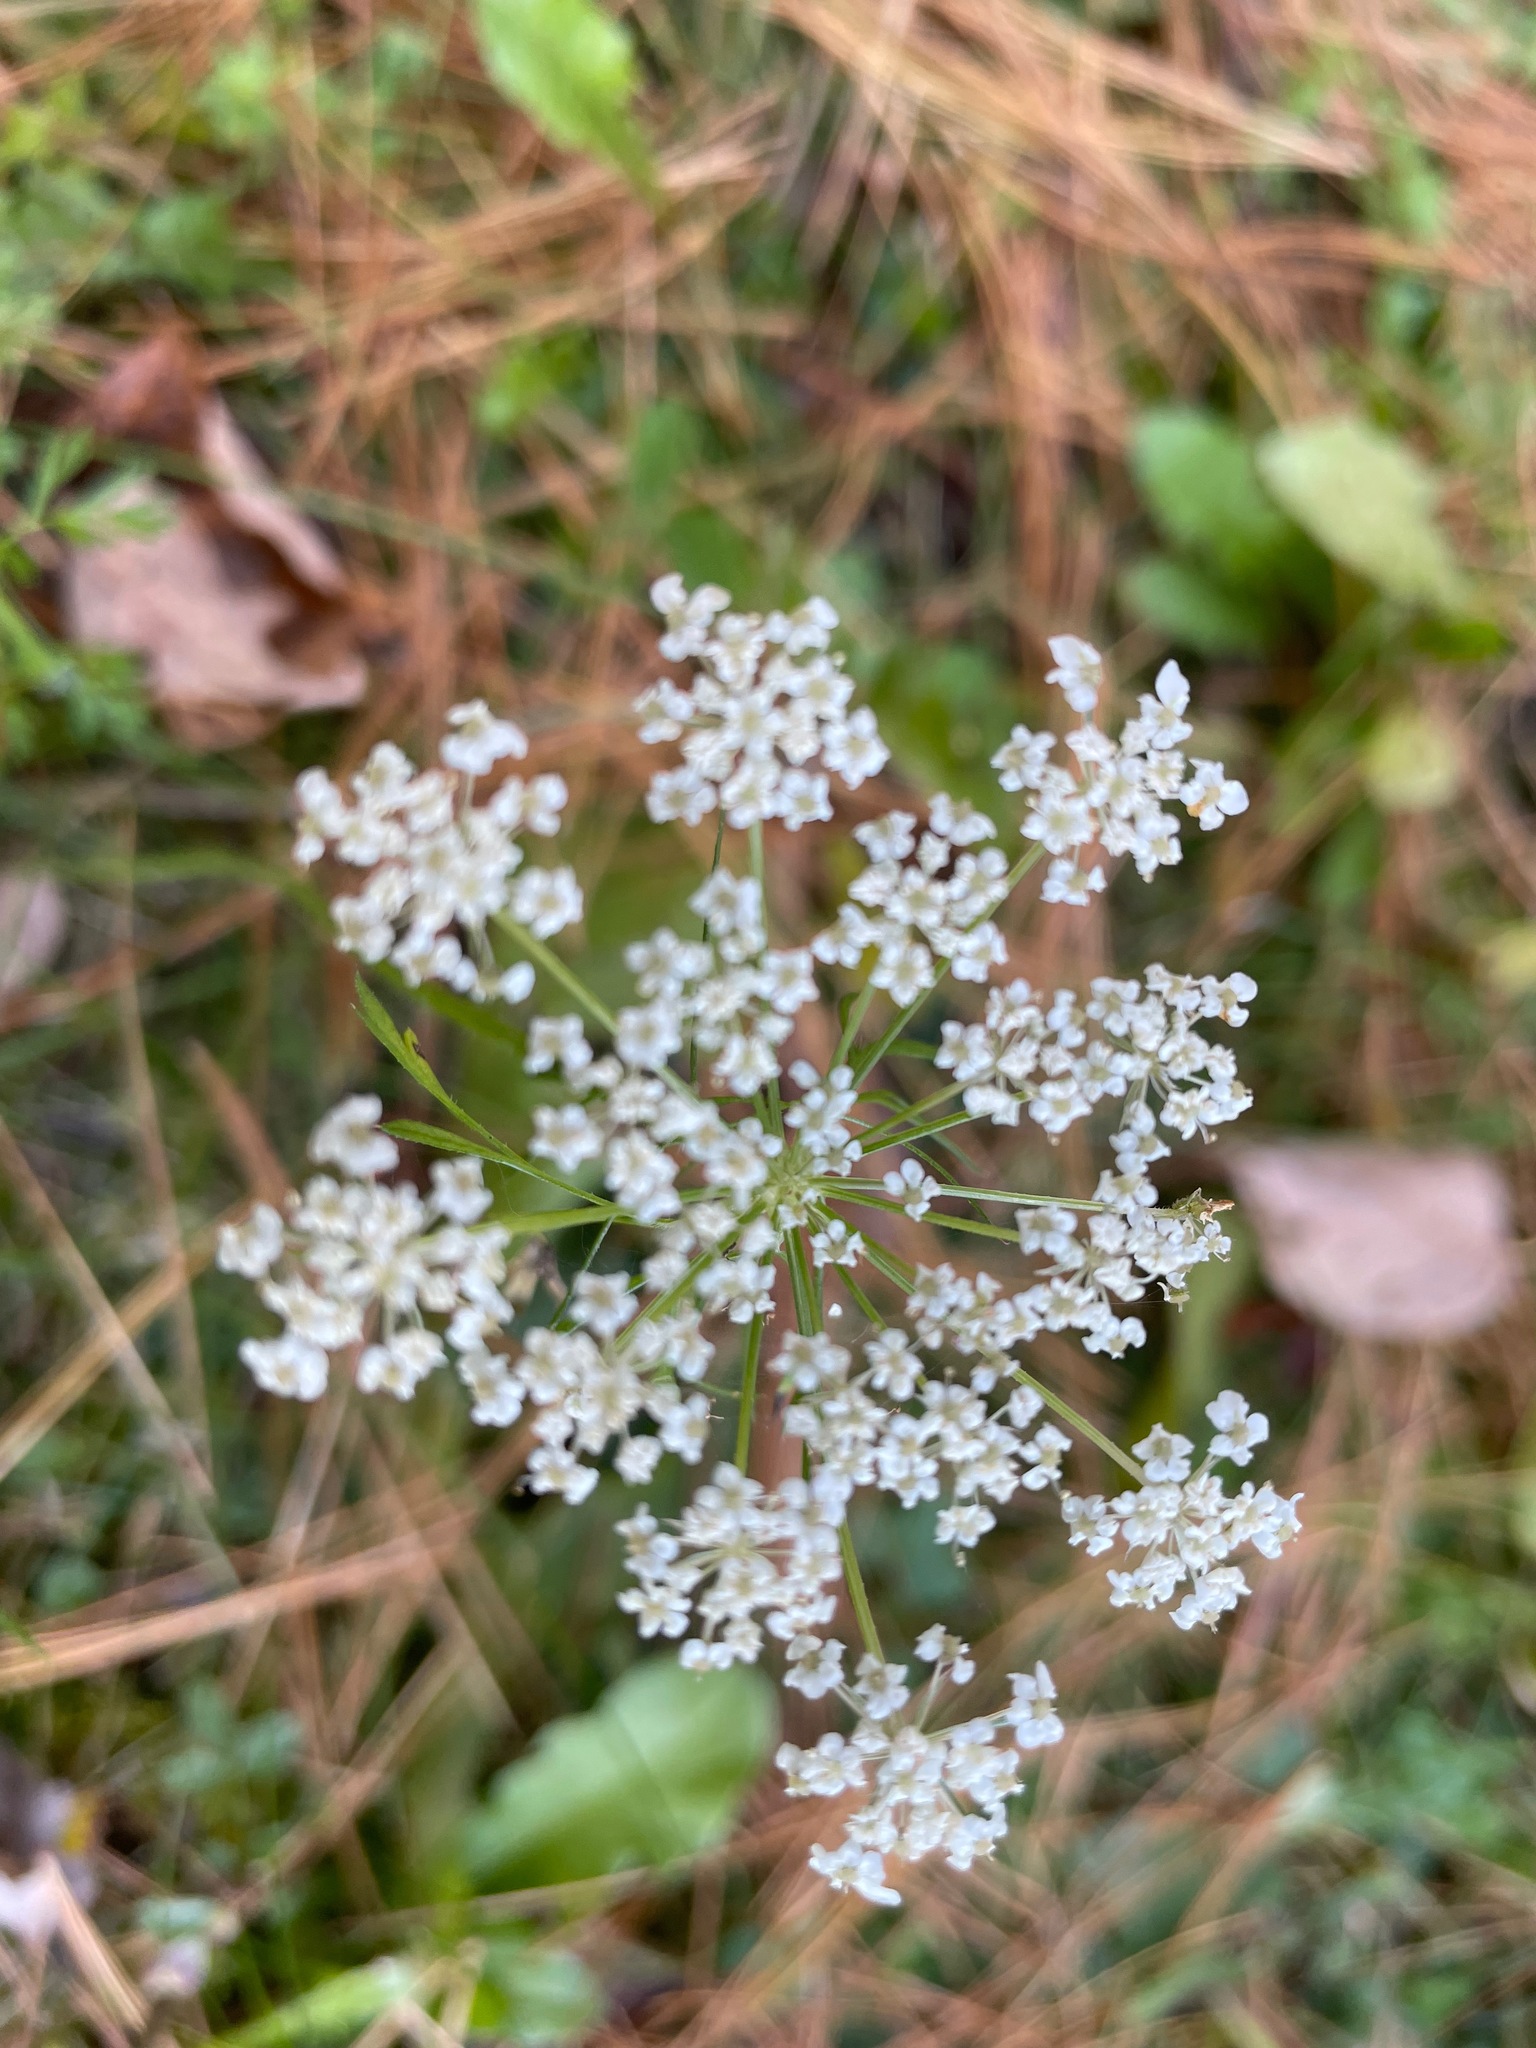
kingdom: Plantae
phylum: Tracheophyta
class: Magnoliopsida
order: Apiales
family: Apiaceae
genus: Daucus
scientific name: Daucus carota
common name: Wild carrot
